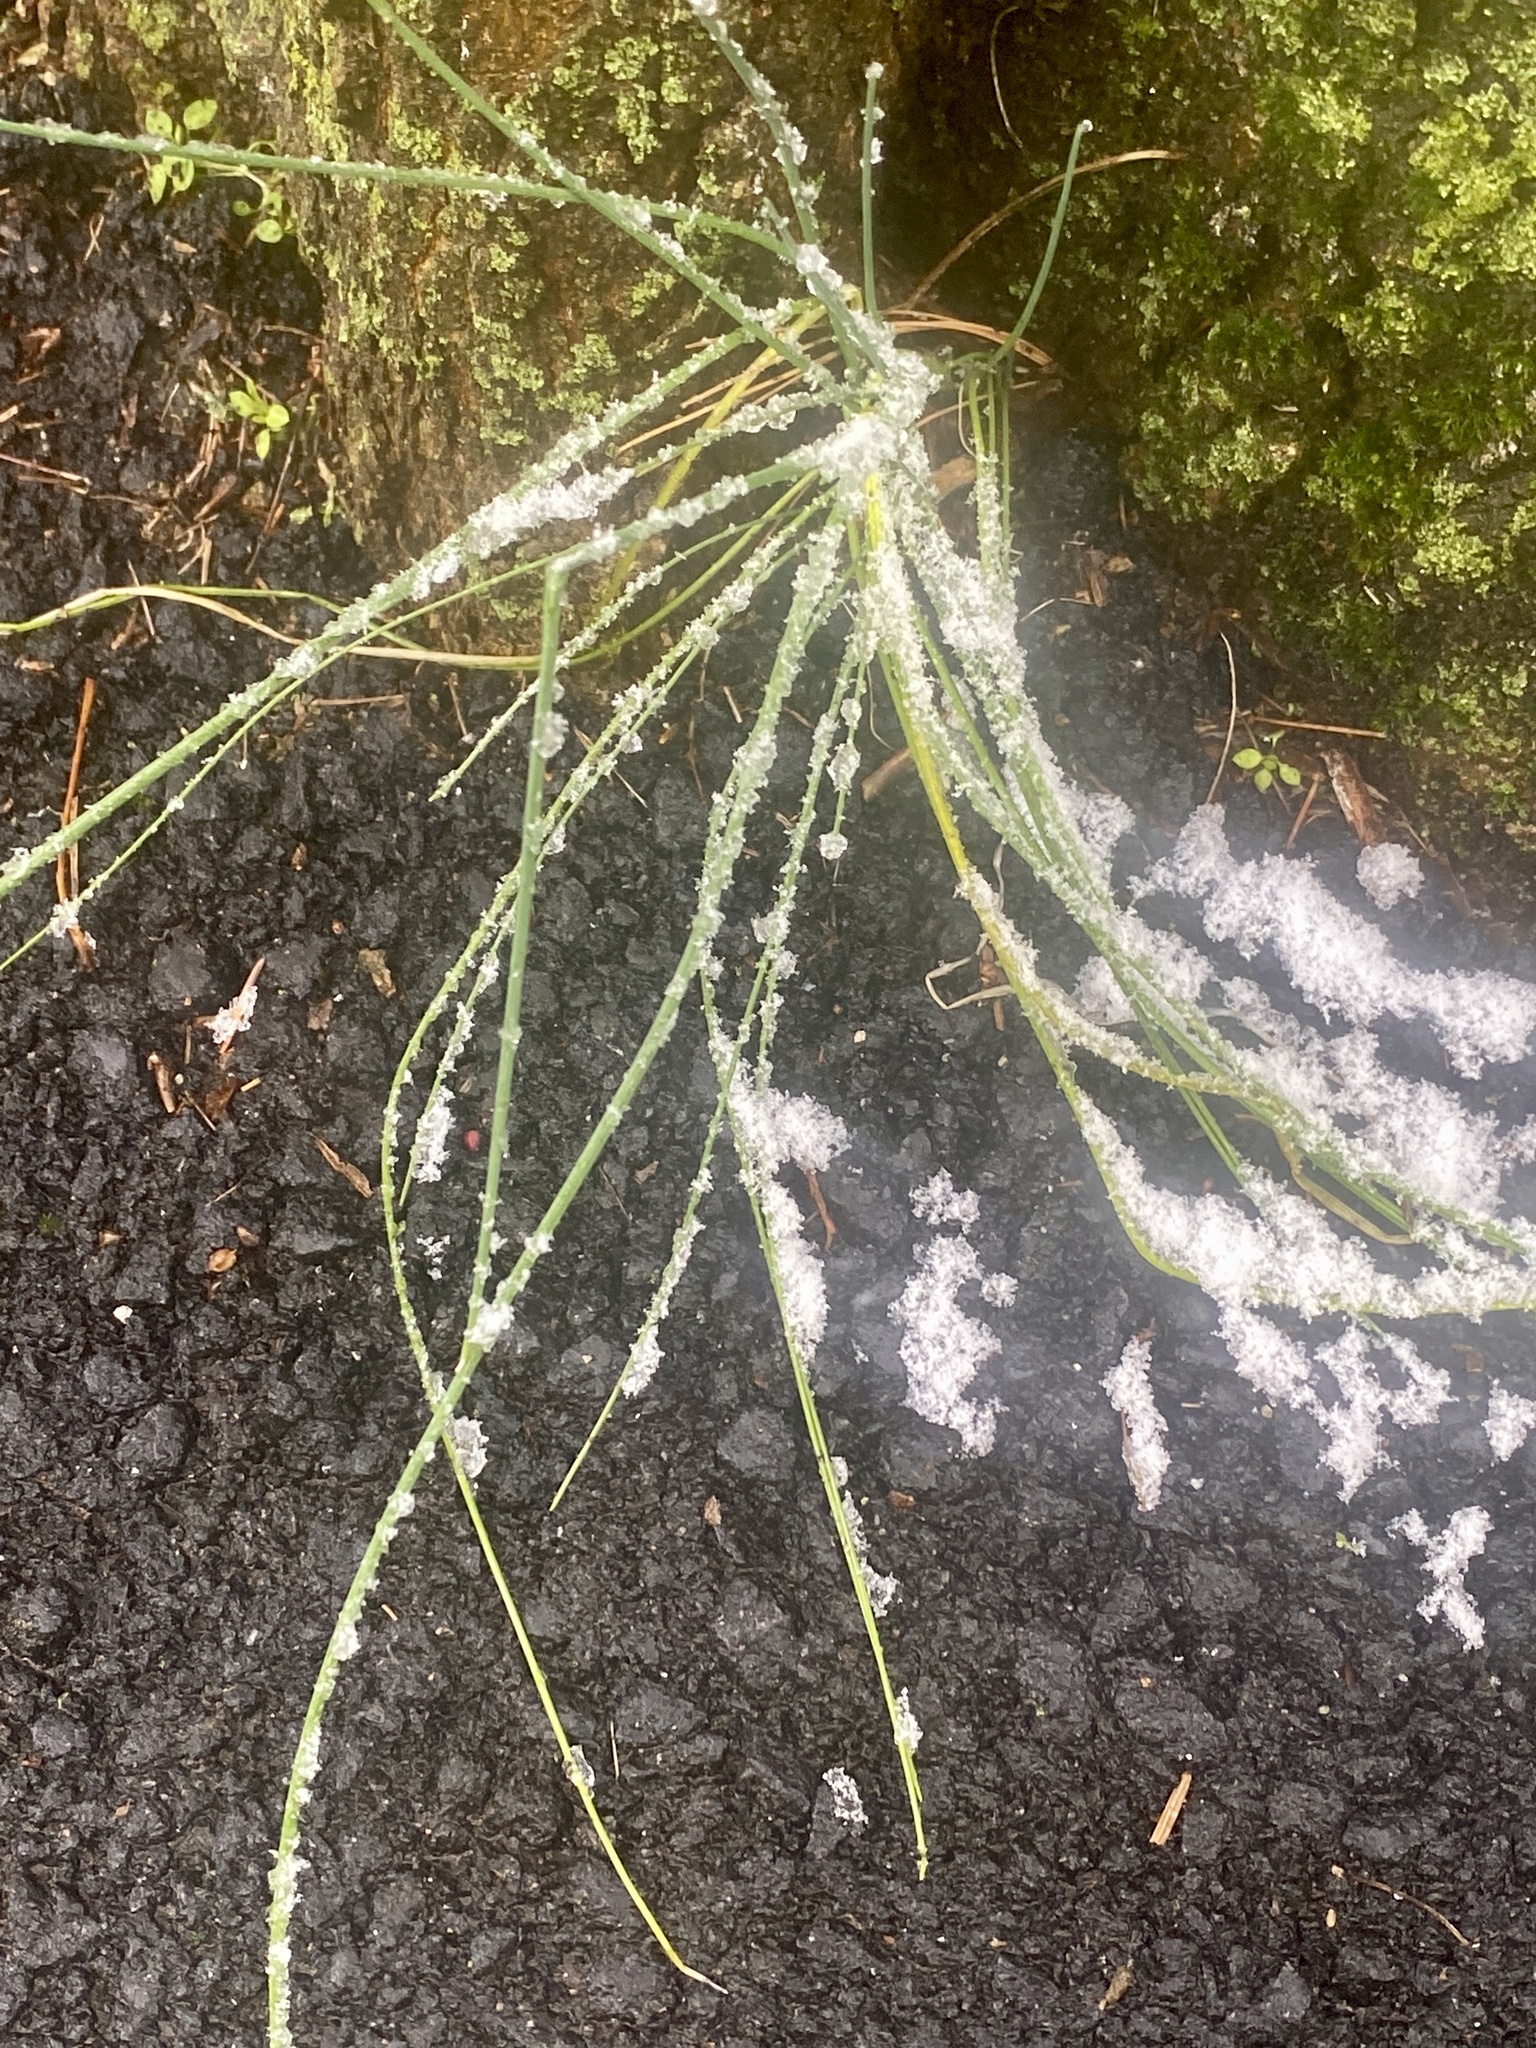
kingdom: Plantae
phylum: Tracheophyta
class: Liliopsida
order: Asparagales
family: Amaryllidaceae
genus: Allium
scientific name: Allium vineale
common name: Crow garlic
